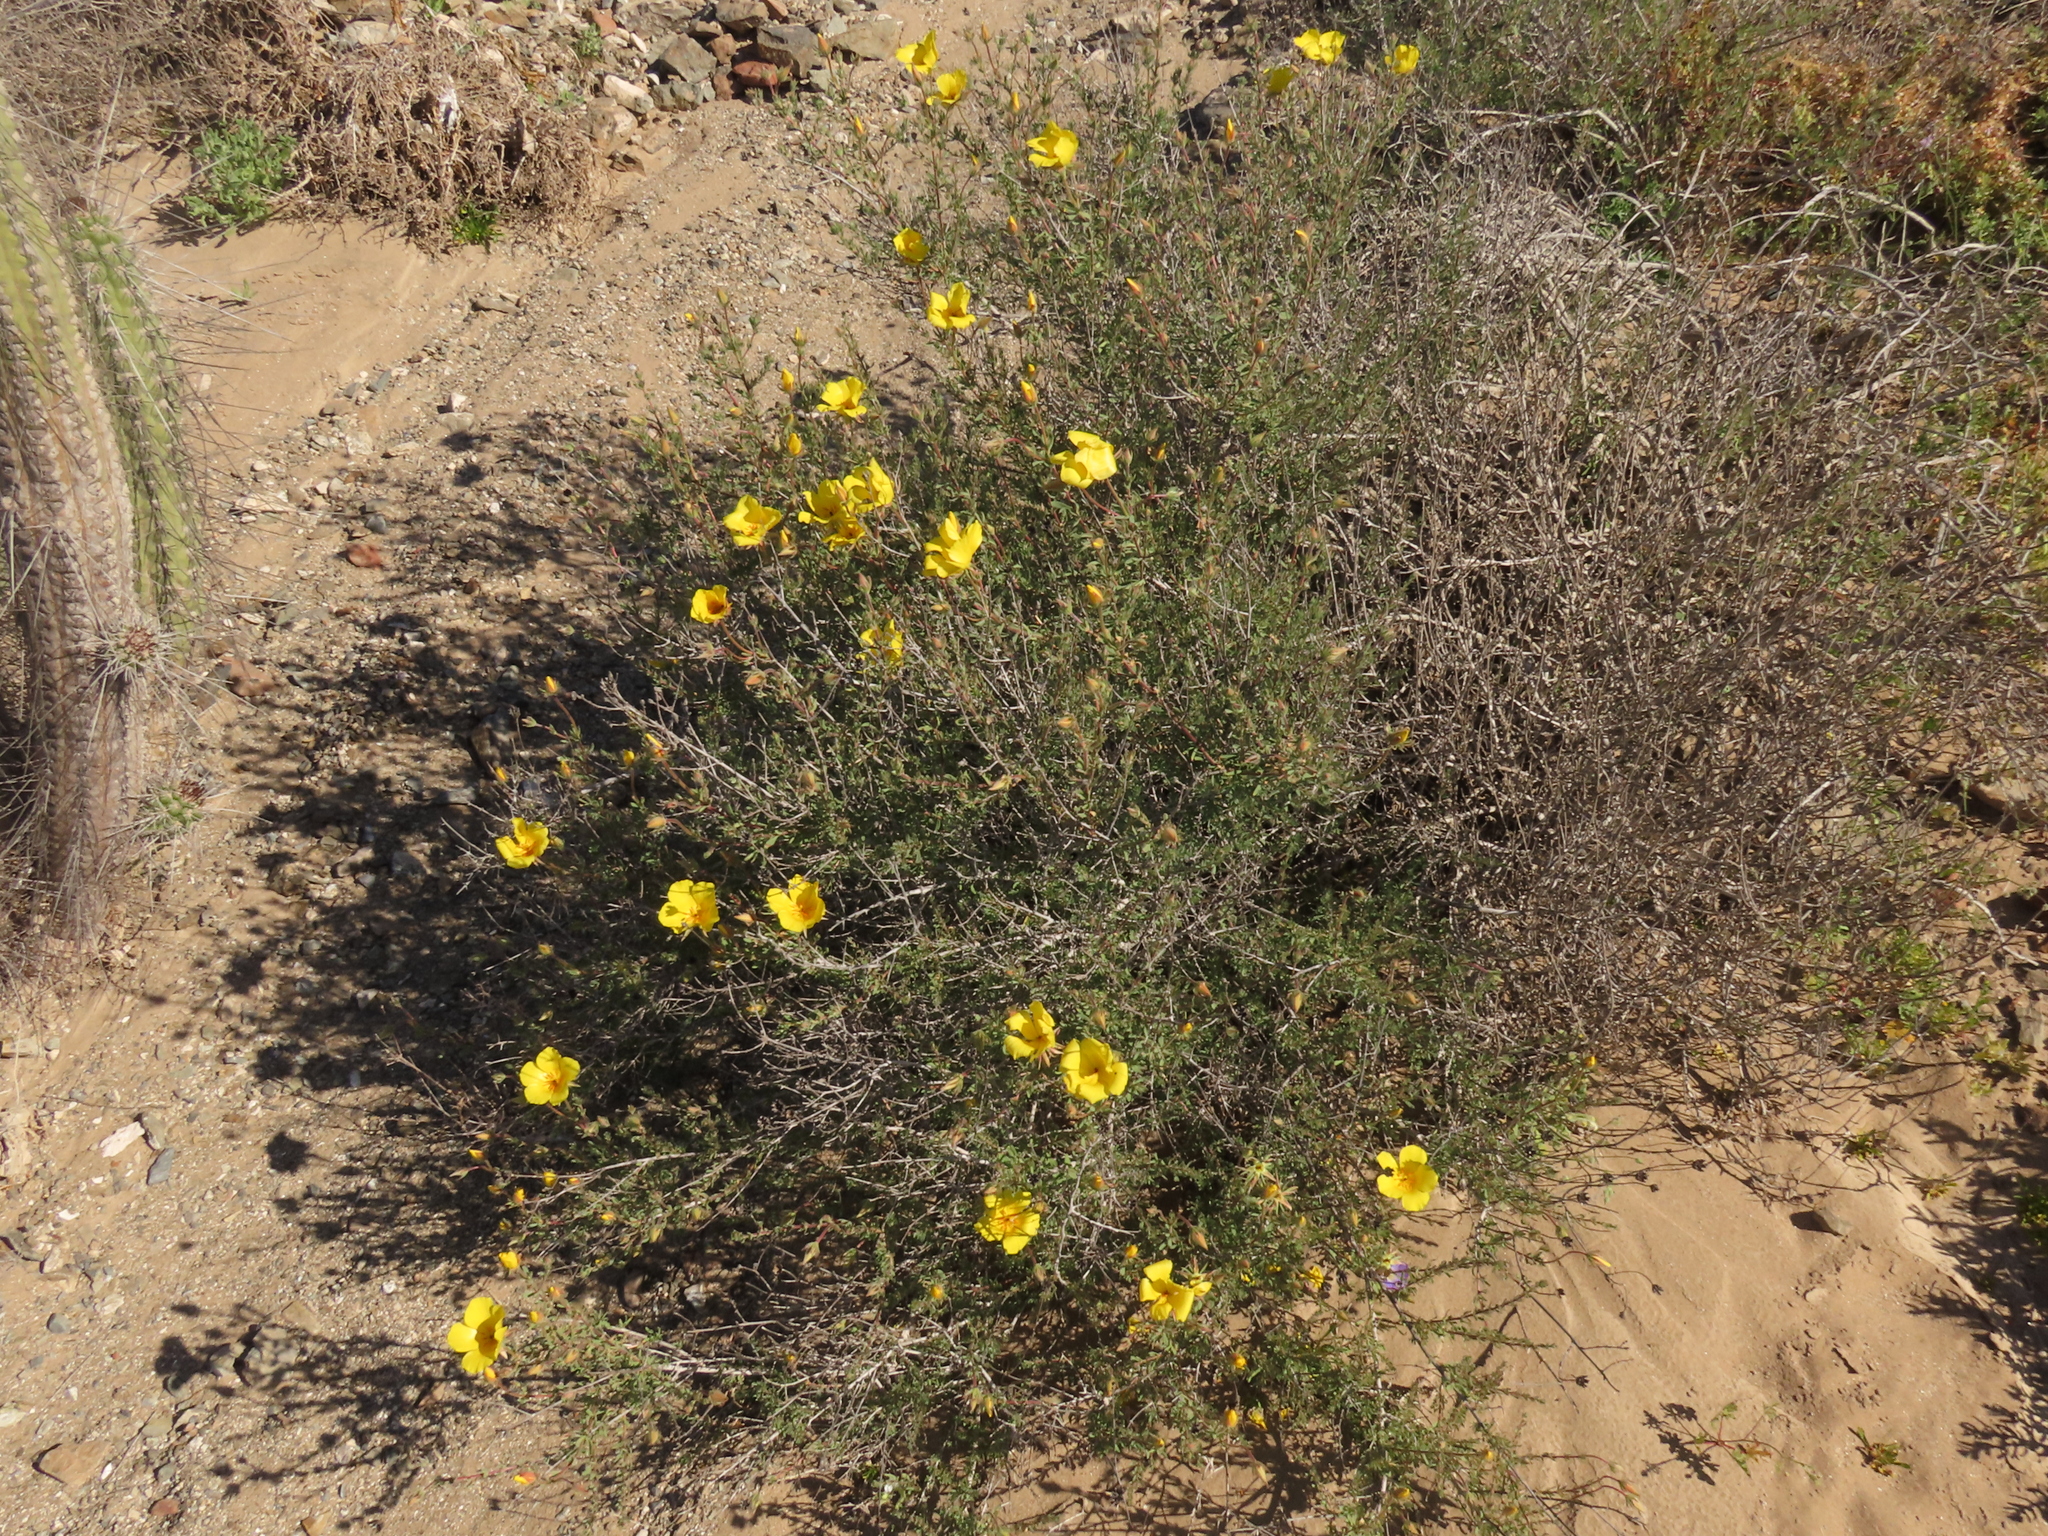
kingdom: Plantae
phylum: Tracheophyta
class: Magnoliopsida
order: Geraniales
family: Vivianiaceae
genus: Balbisia
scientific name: Balbisia peduncularis
